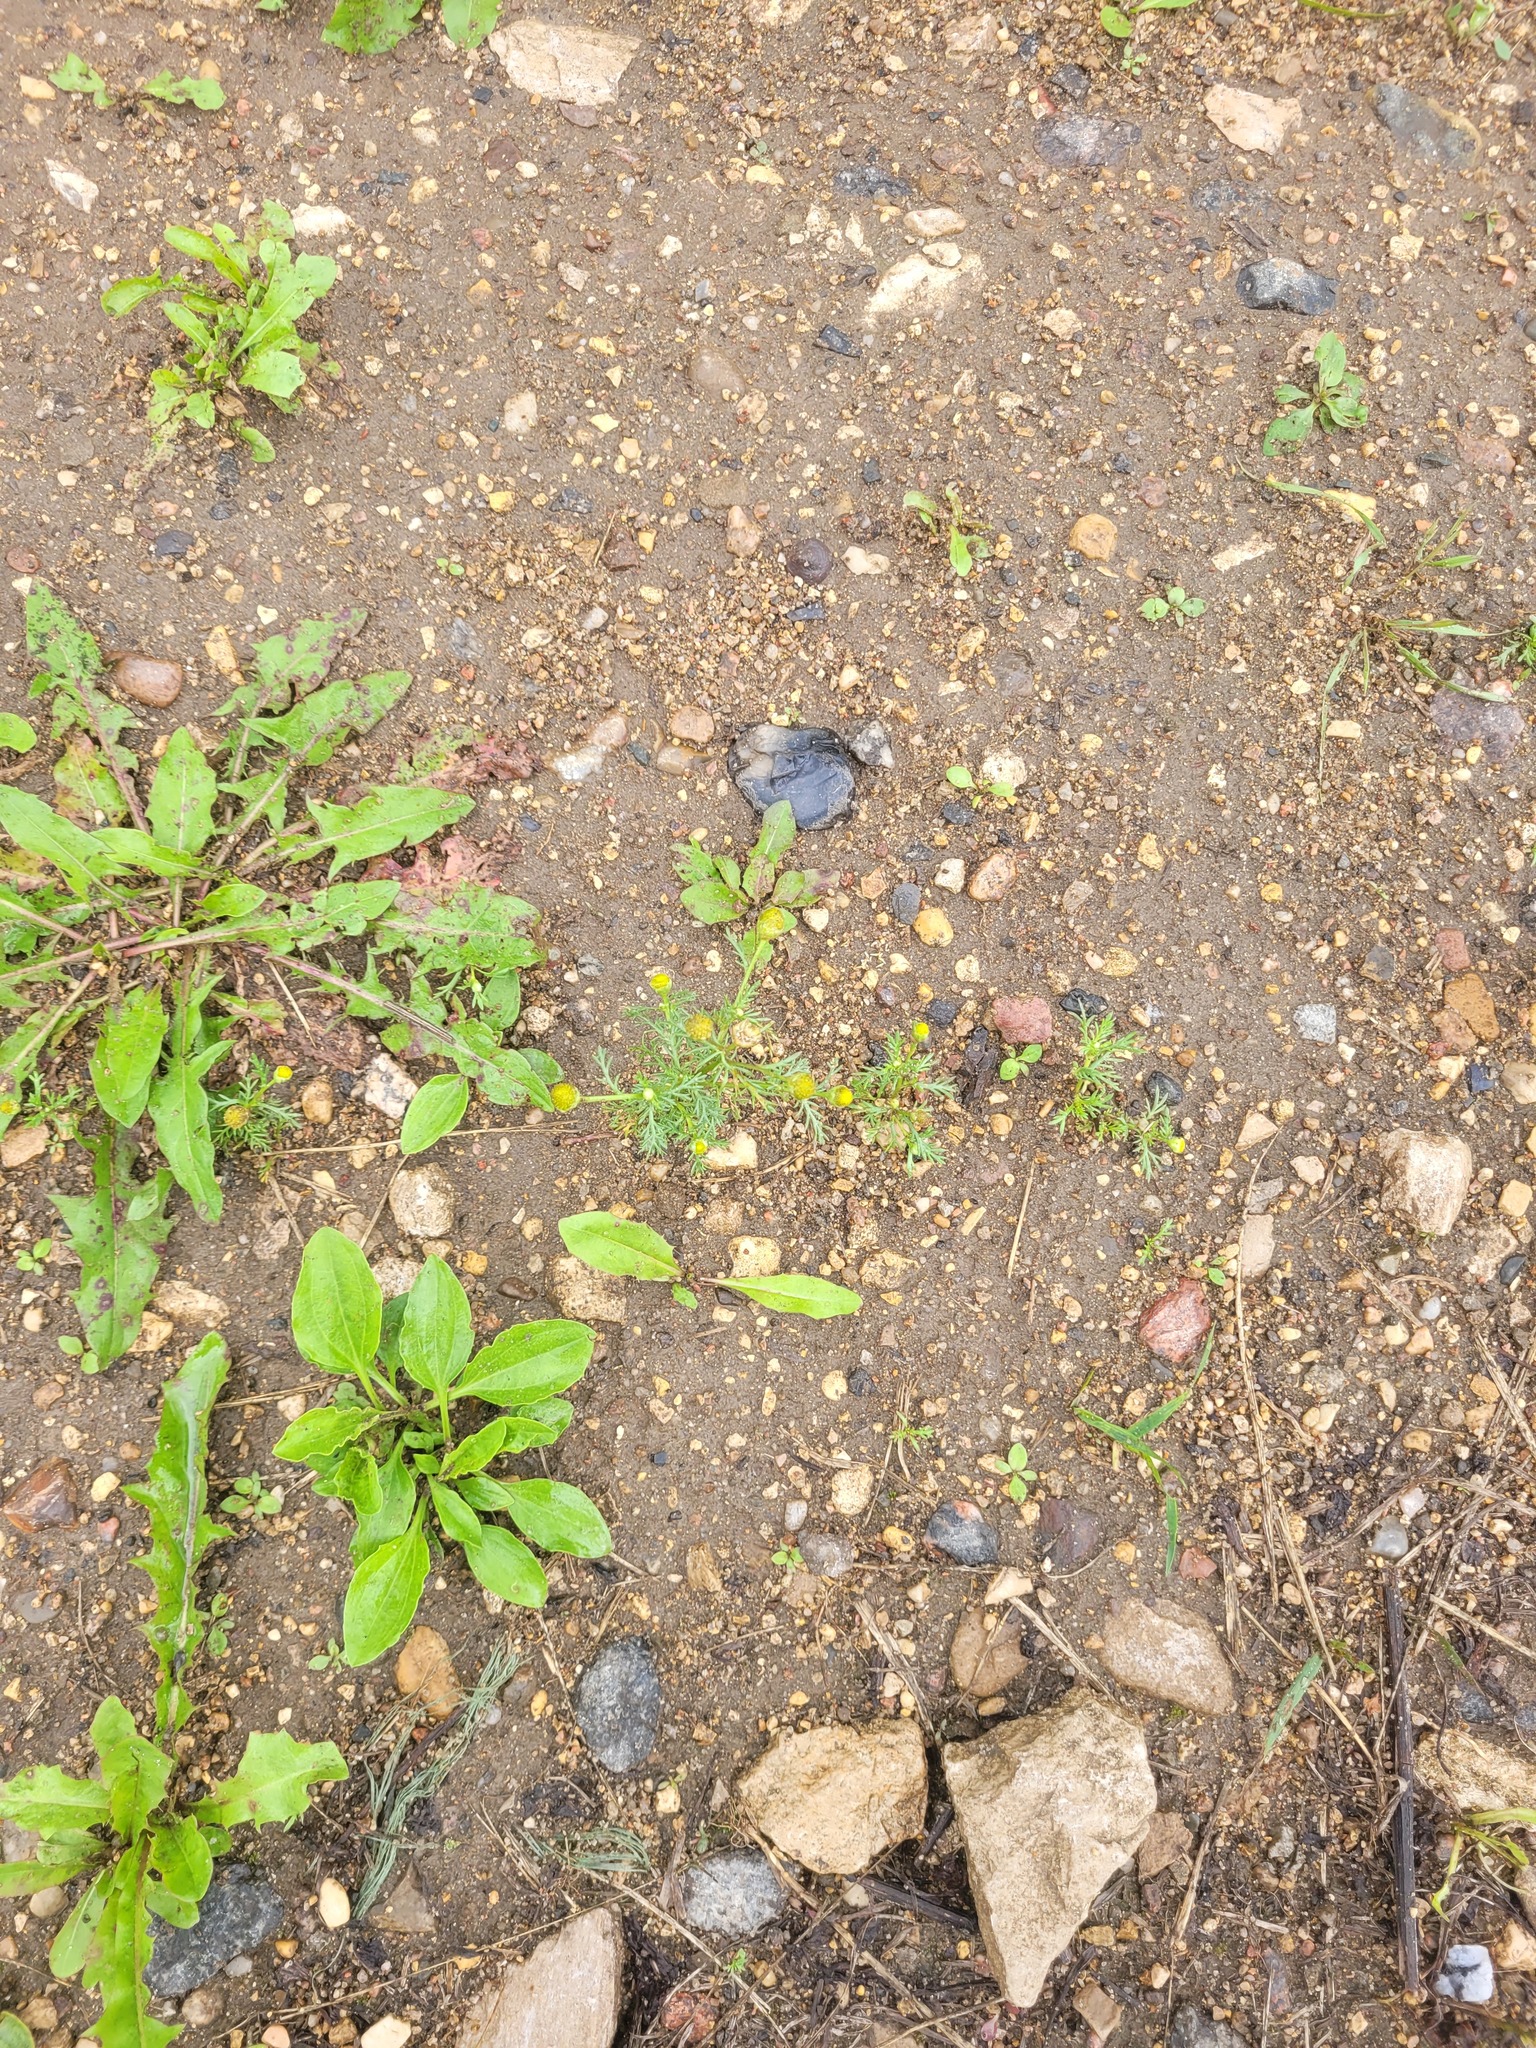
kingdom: Plantae
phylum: Tracheophyta
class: Magnoliopsida
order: Asterales
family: Asteraceae
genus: Matricaria
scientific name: Matricaria discoidea
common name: Disc mayweed
